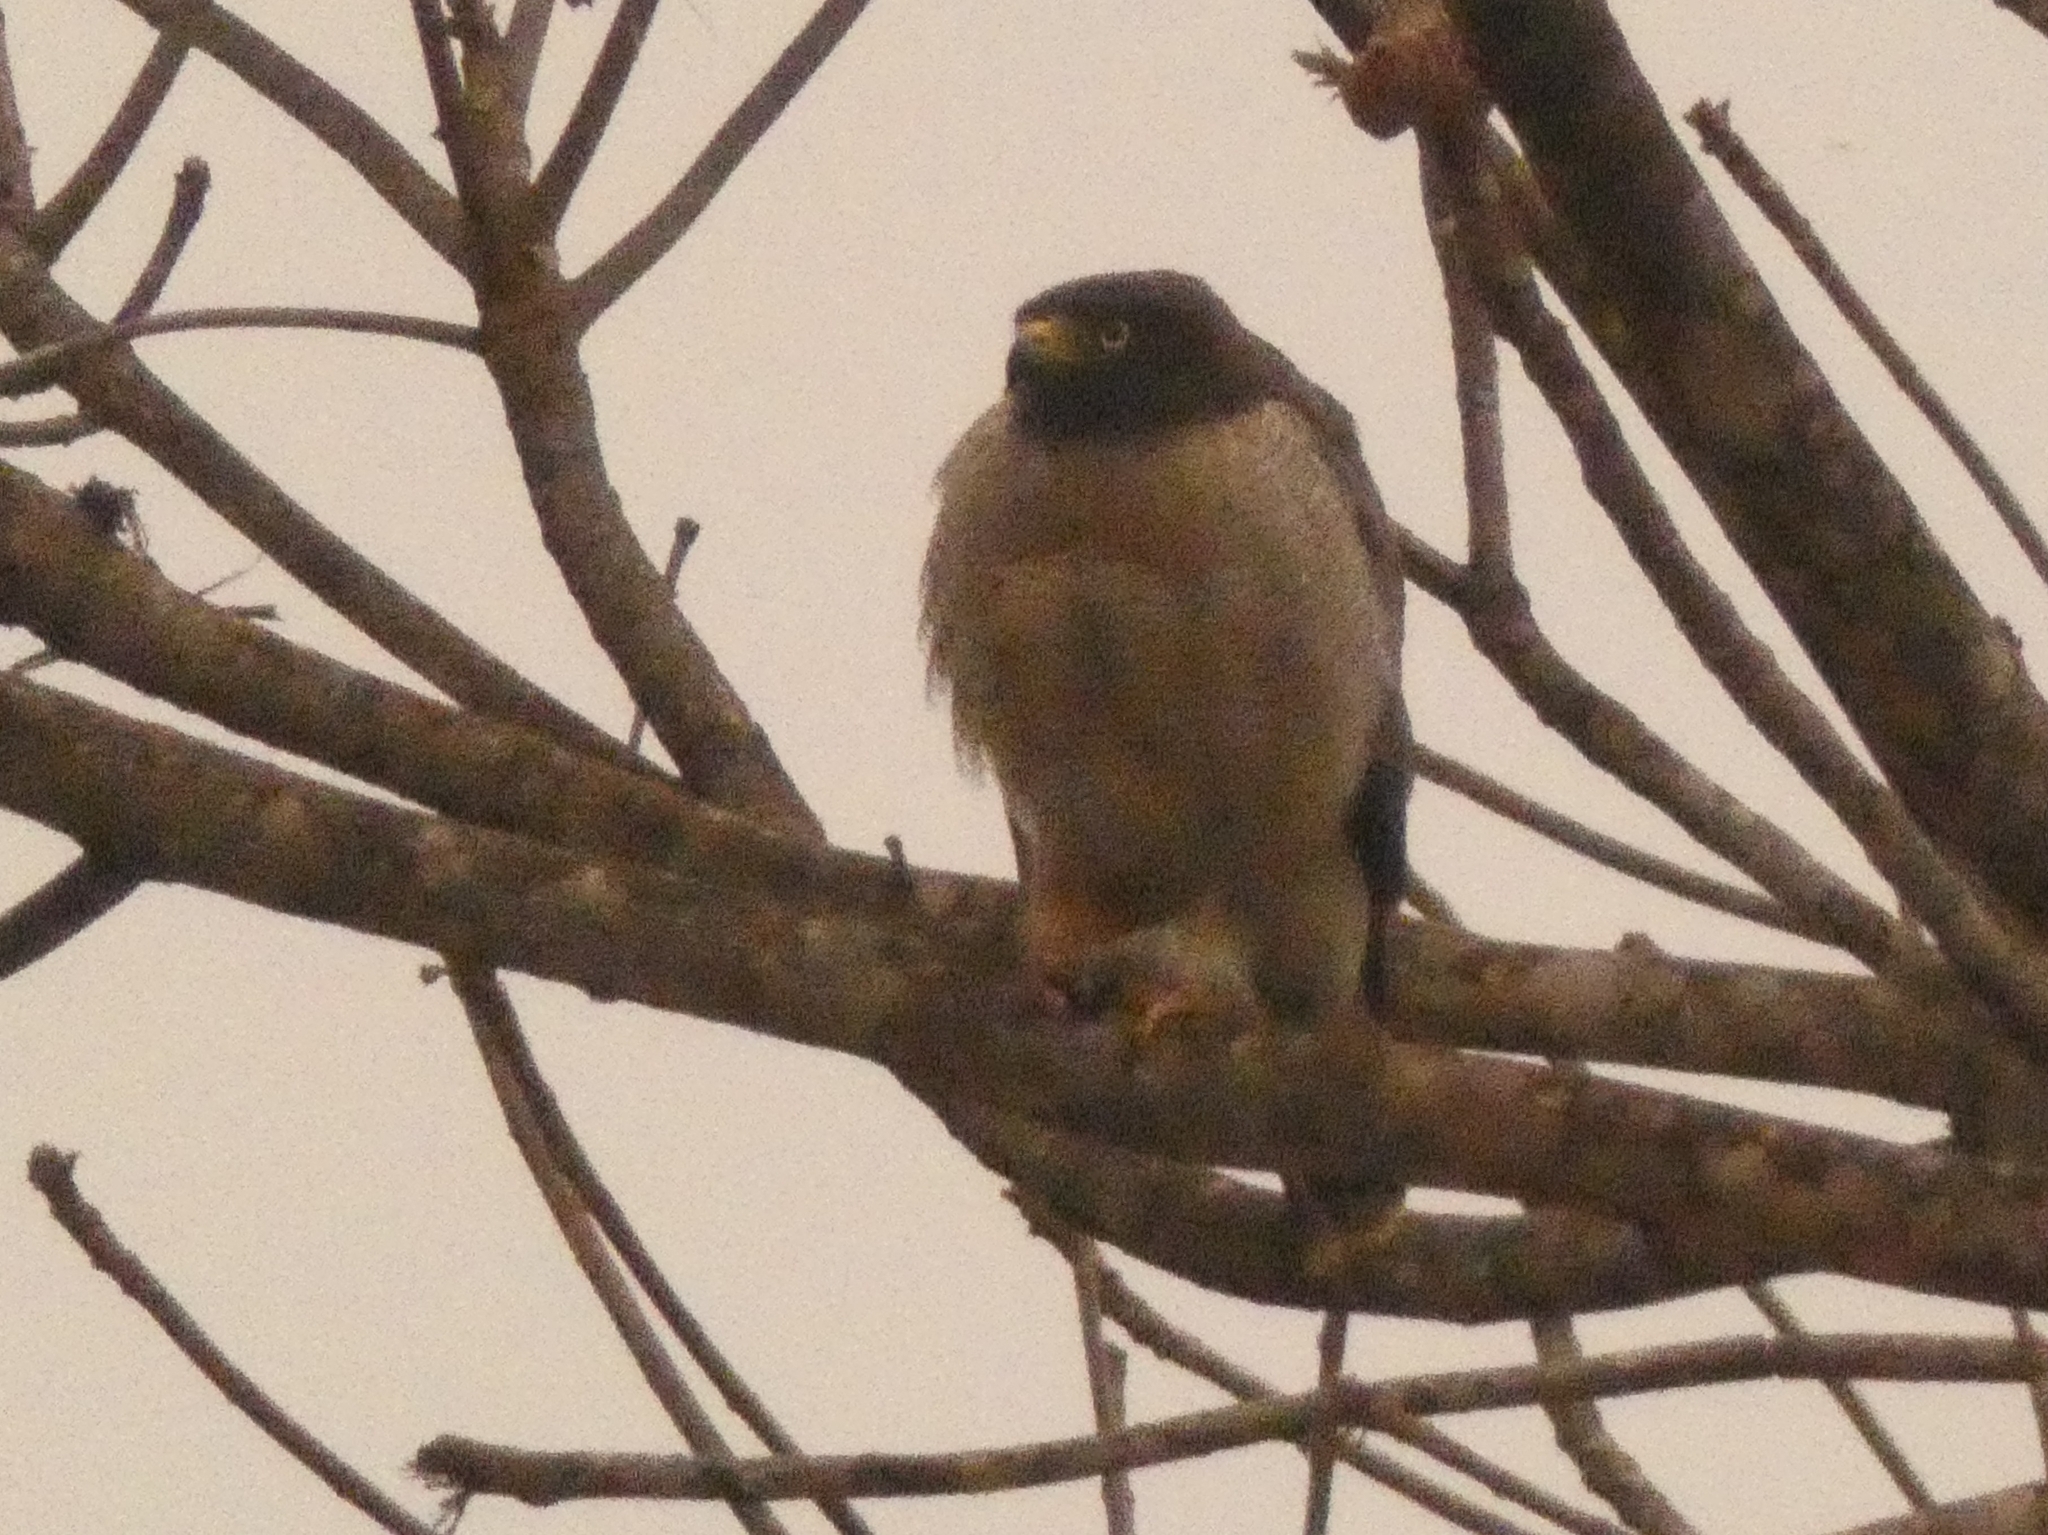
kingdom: Animalia
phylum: Chordata
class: Aves
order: Accipitriformes
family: Accipitridae
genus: Rupornis
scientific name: Rupornis magnirostris
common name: Roadside hawk
